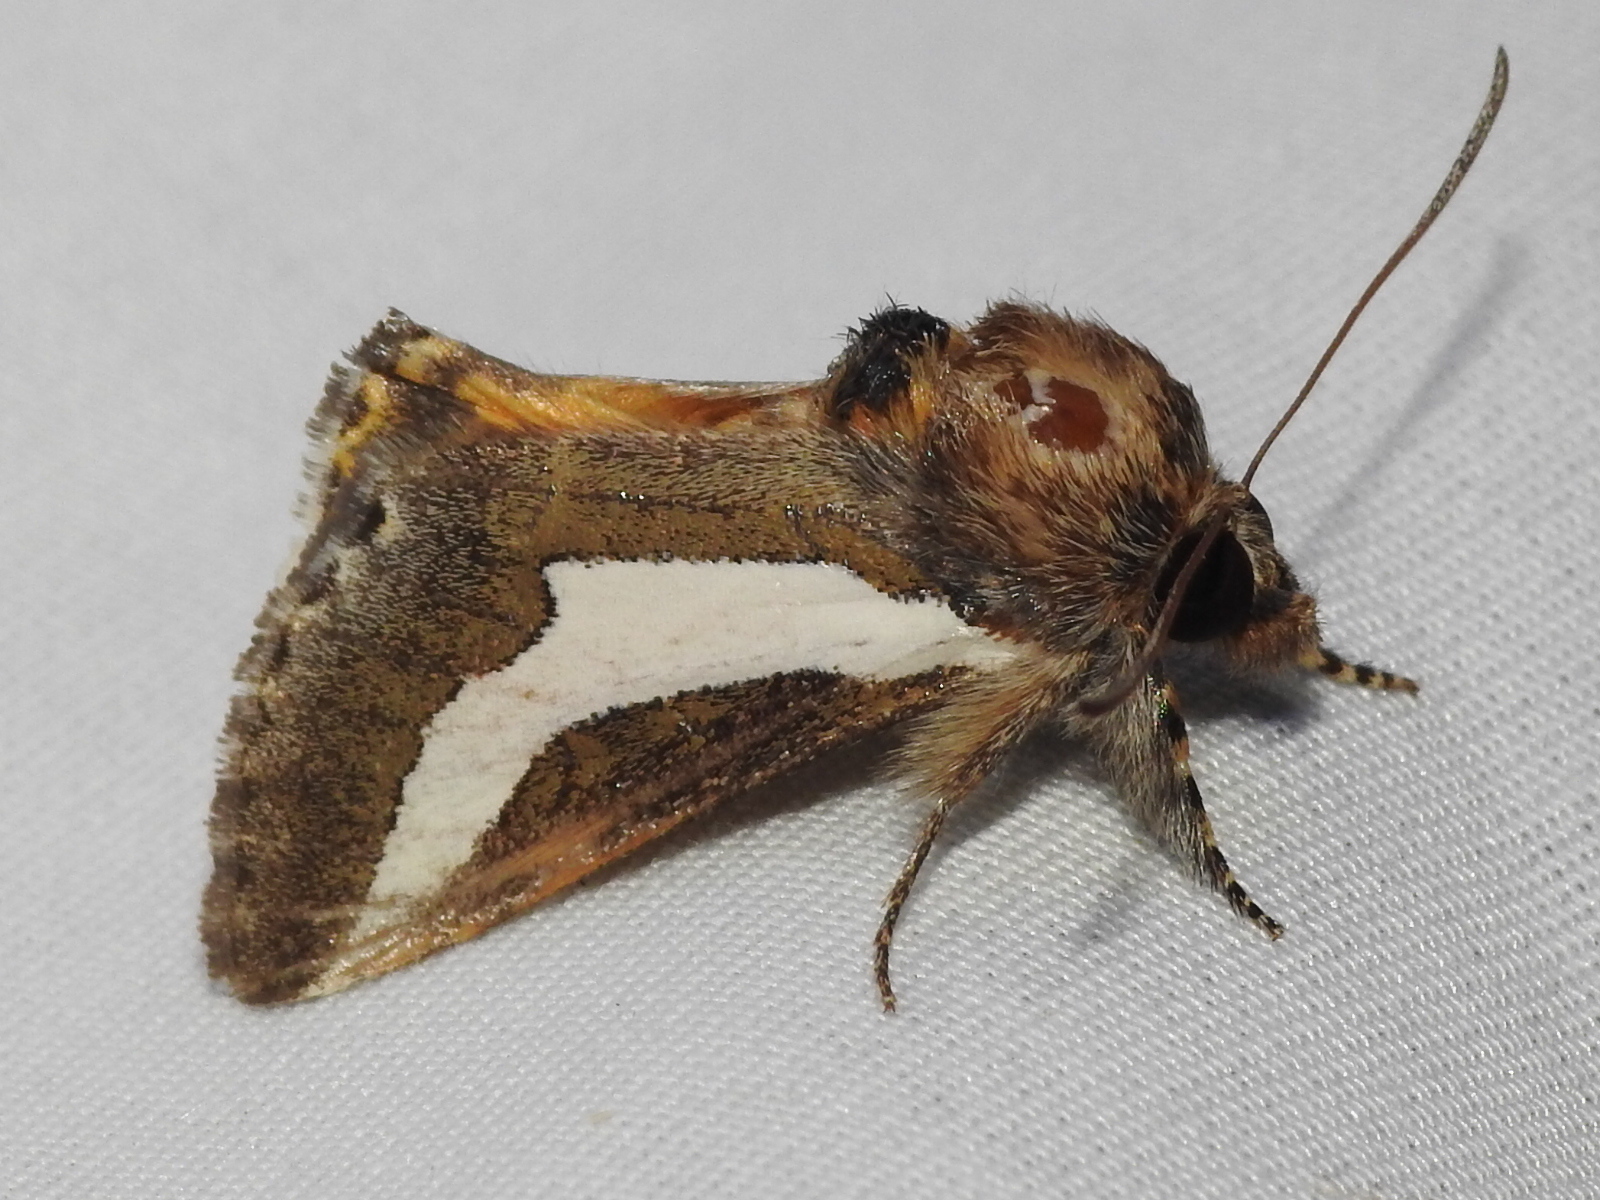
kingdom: Animalia
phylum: Arthropoda
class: Insecta
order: Lepidoptera
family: Noctuidae
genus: Euscirrhopterus
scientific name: Euscirrhopterus cosyra
